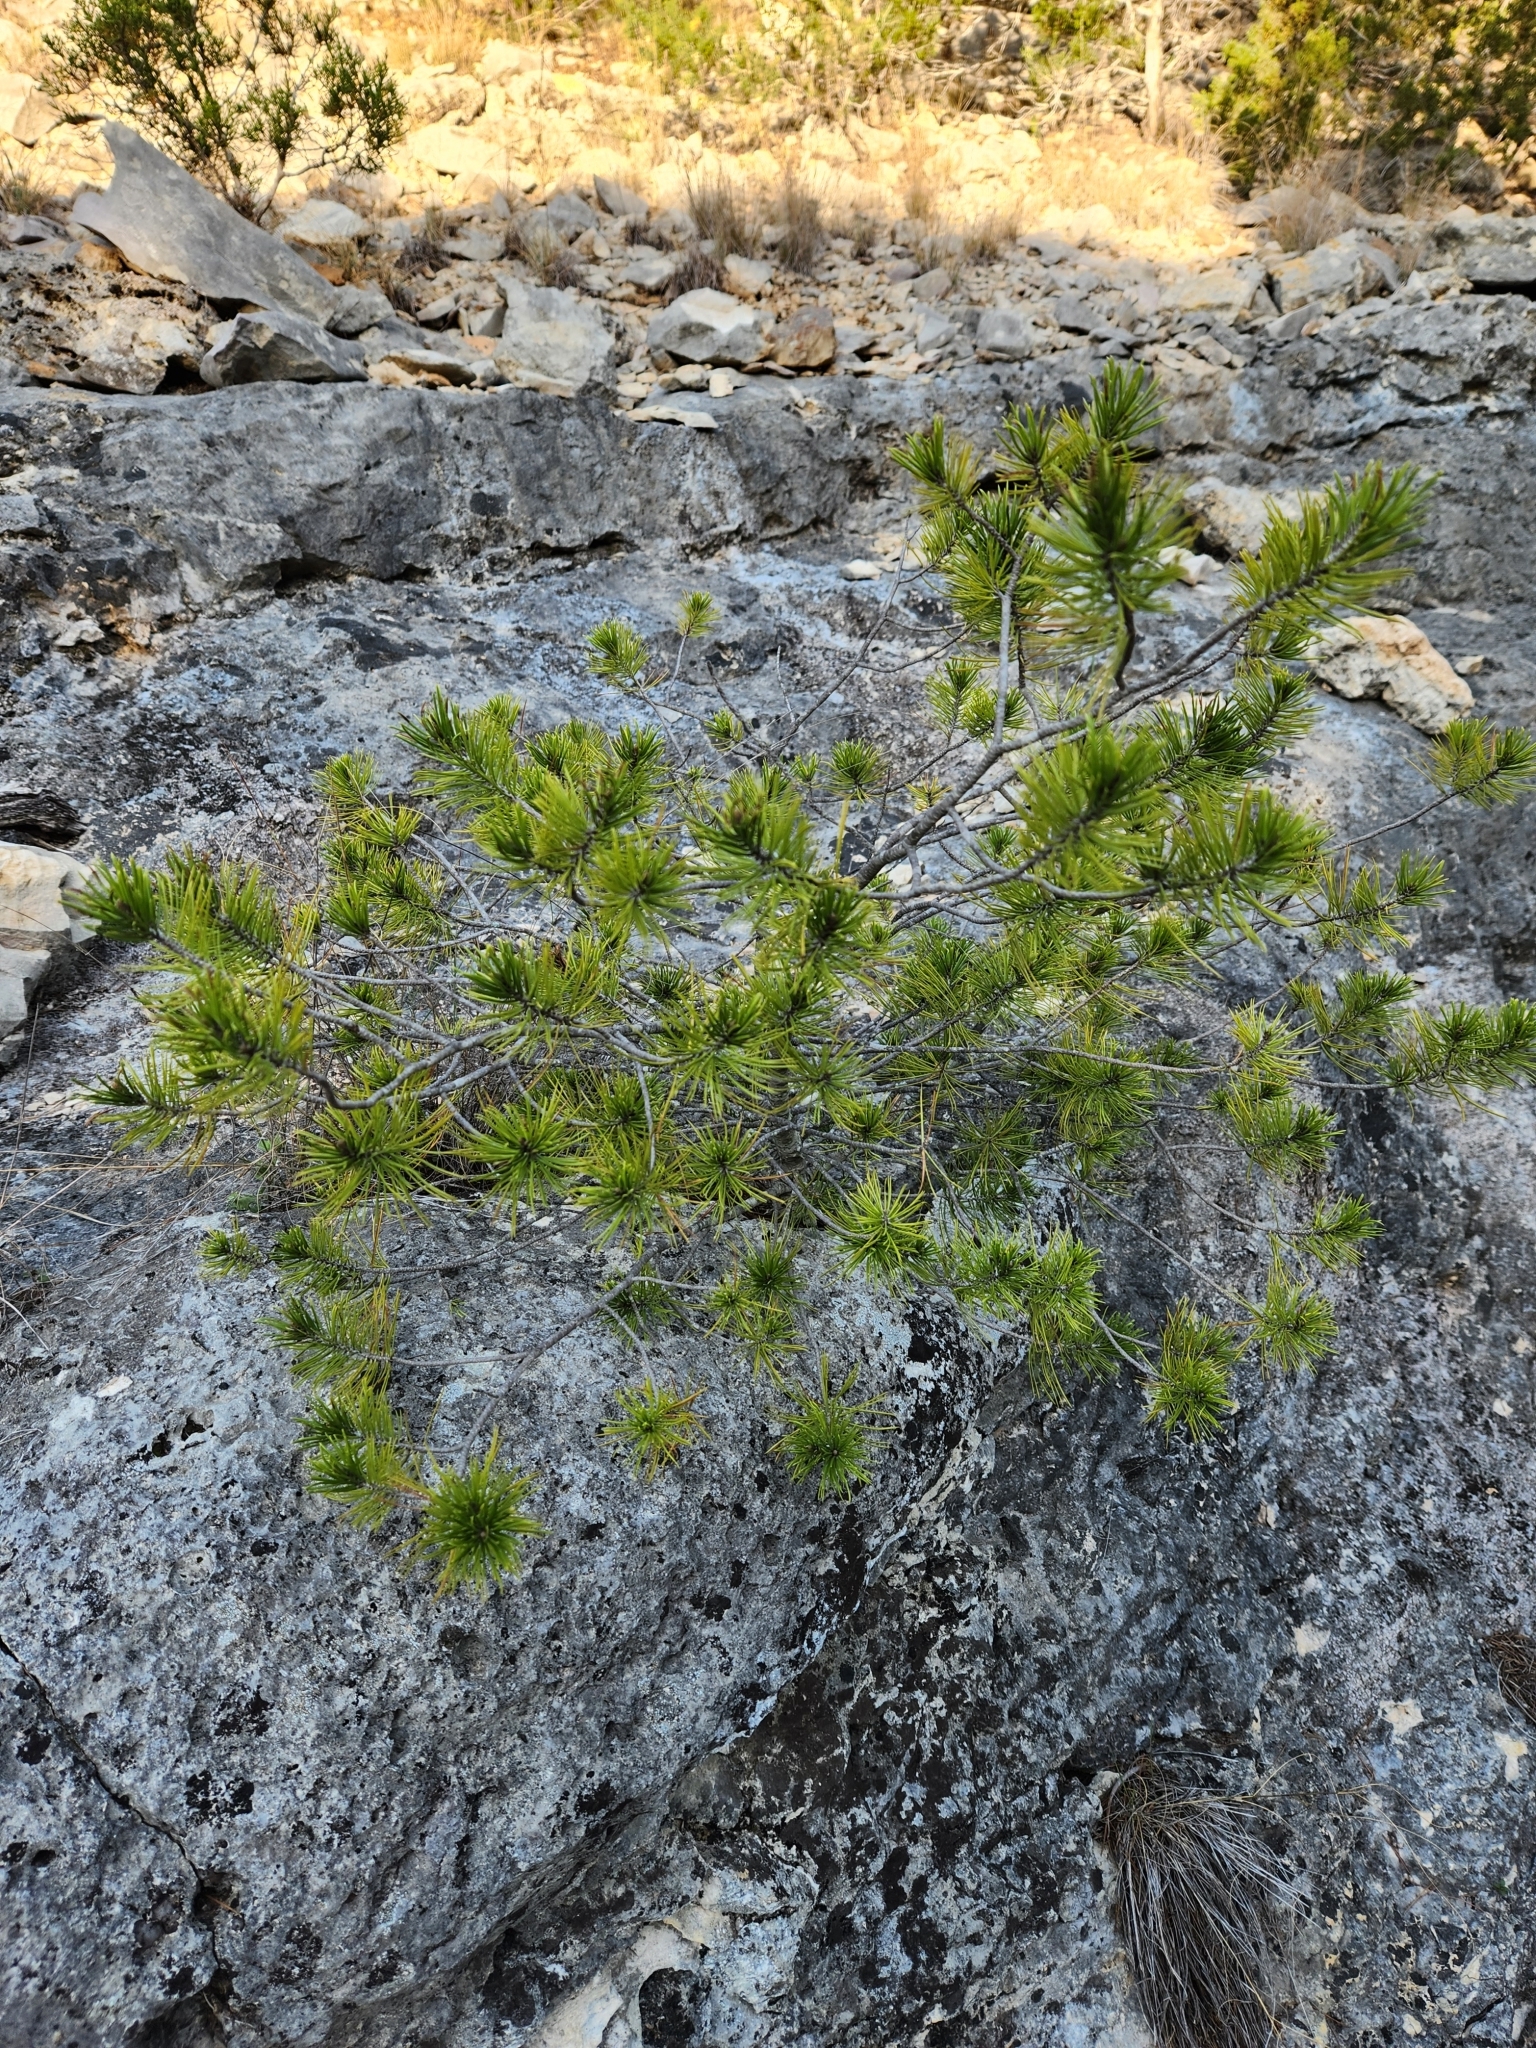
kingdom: Plantae
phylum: Tracheophyta
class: Pinopsida
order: Pinales
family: Pinaceae
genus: Pinus
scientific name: Pinus remota
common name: Nut pine
